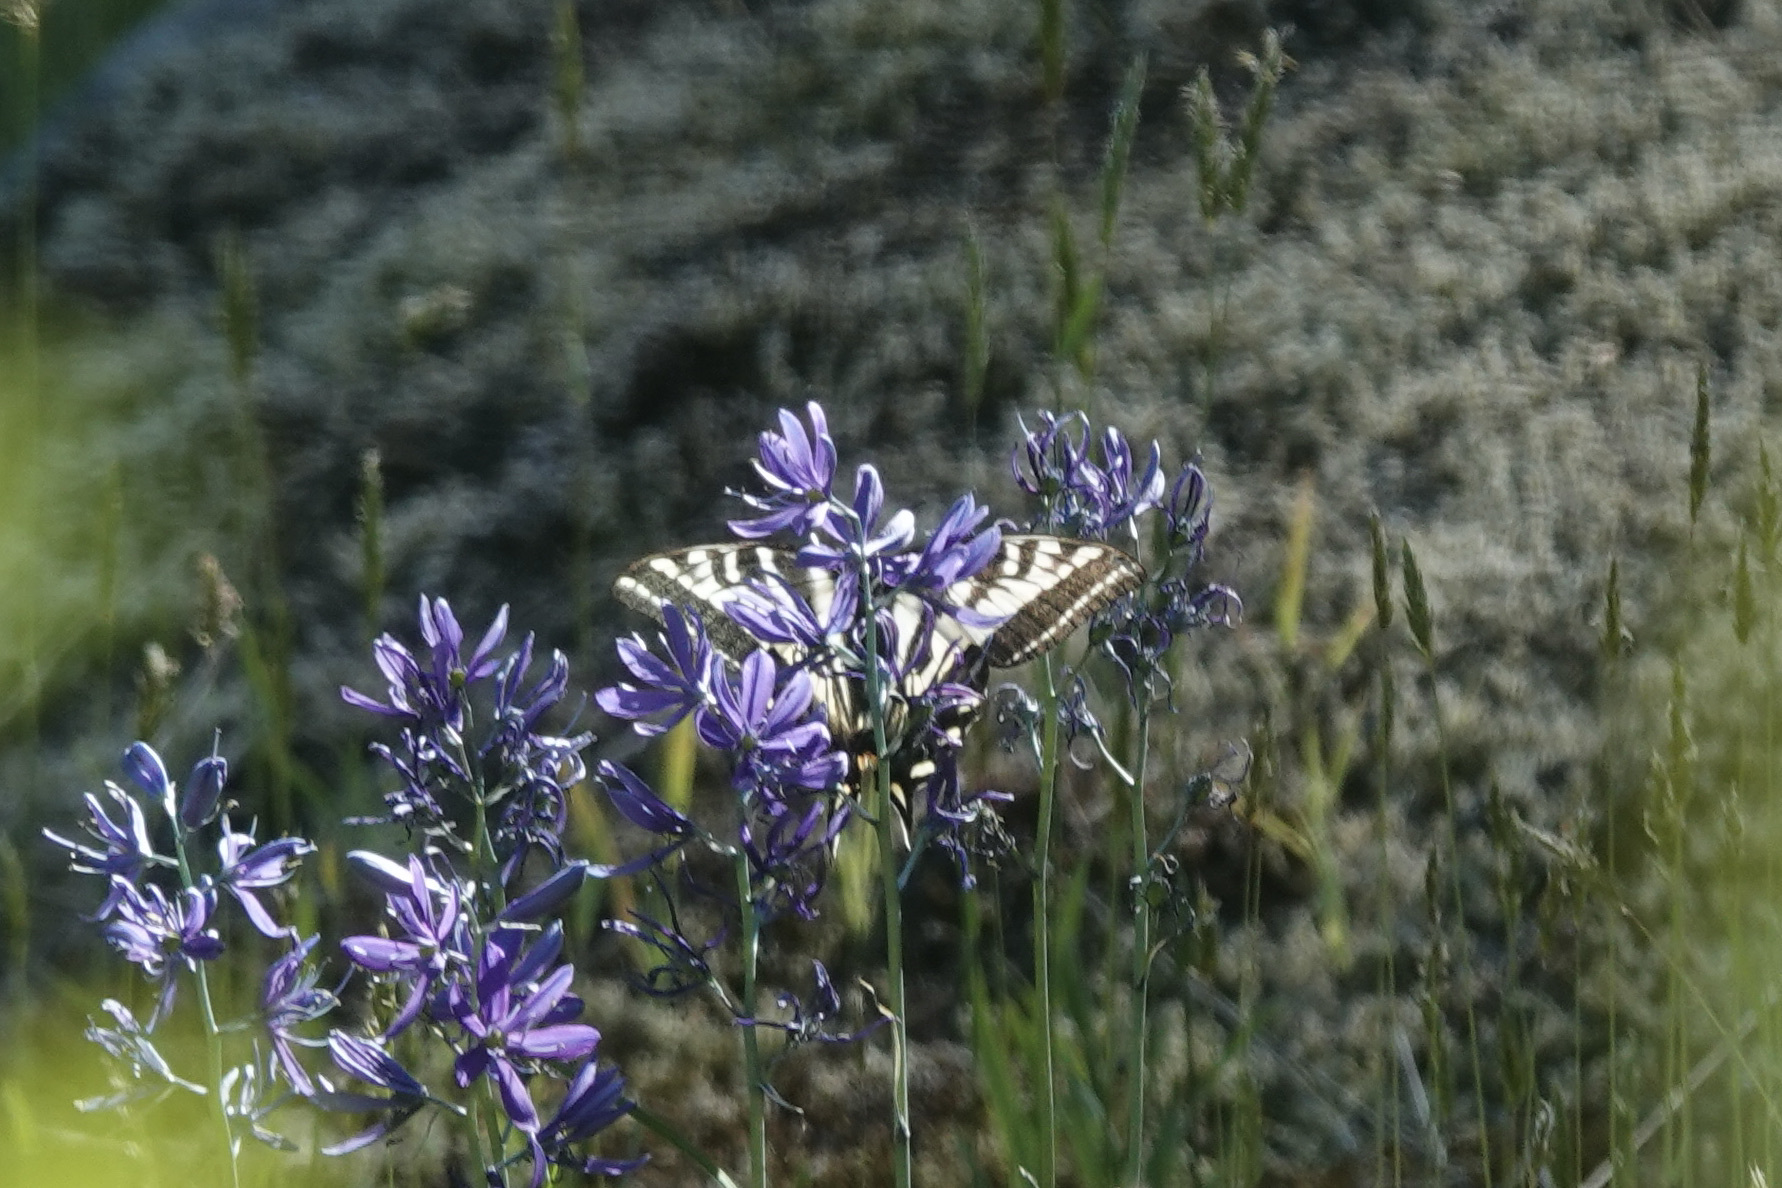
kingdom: Animalia
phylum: Arthropoda
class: Insecta
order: Lepidoptera
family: Papilionidae
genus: Papilio
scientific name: Papilio eurymedon
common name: Pale tiger swallowtail
